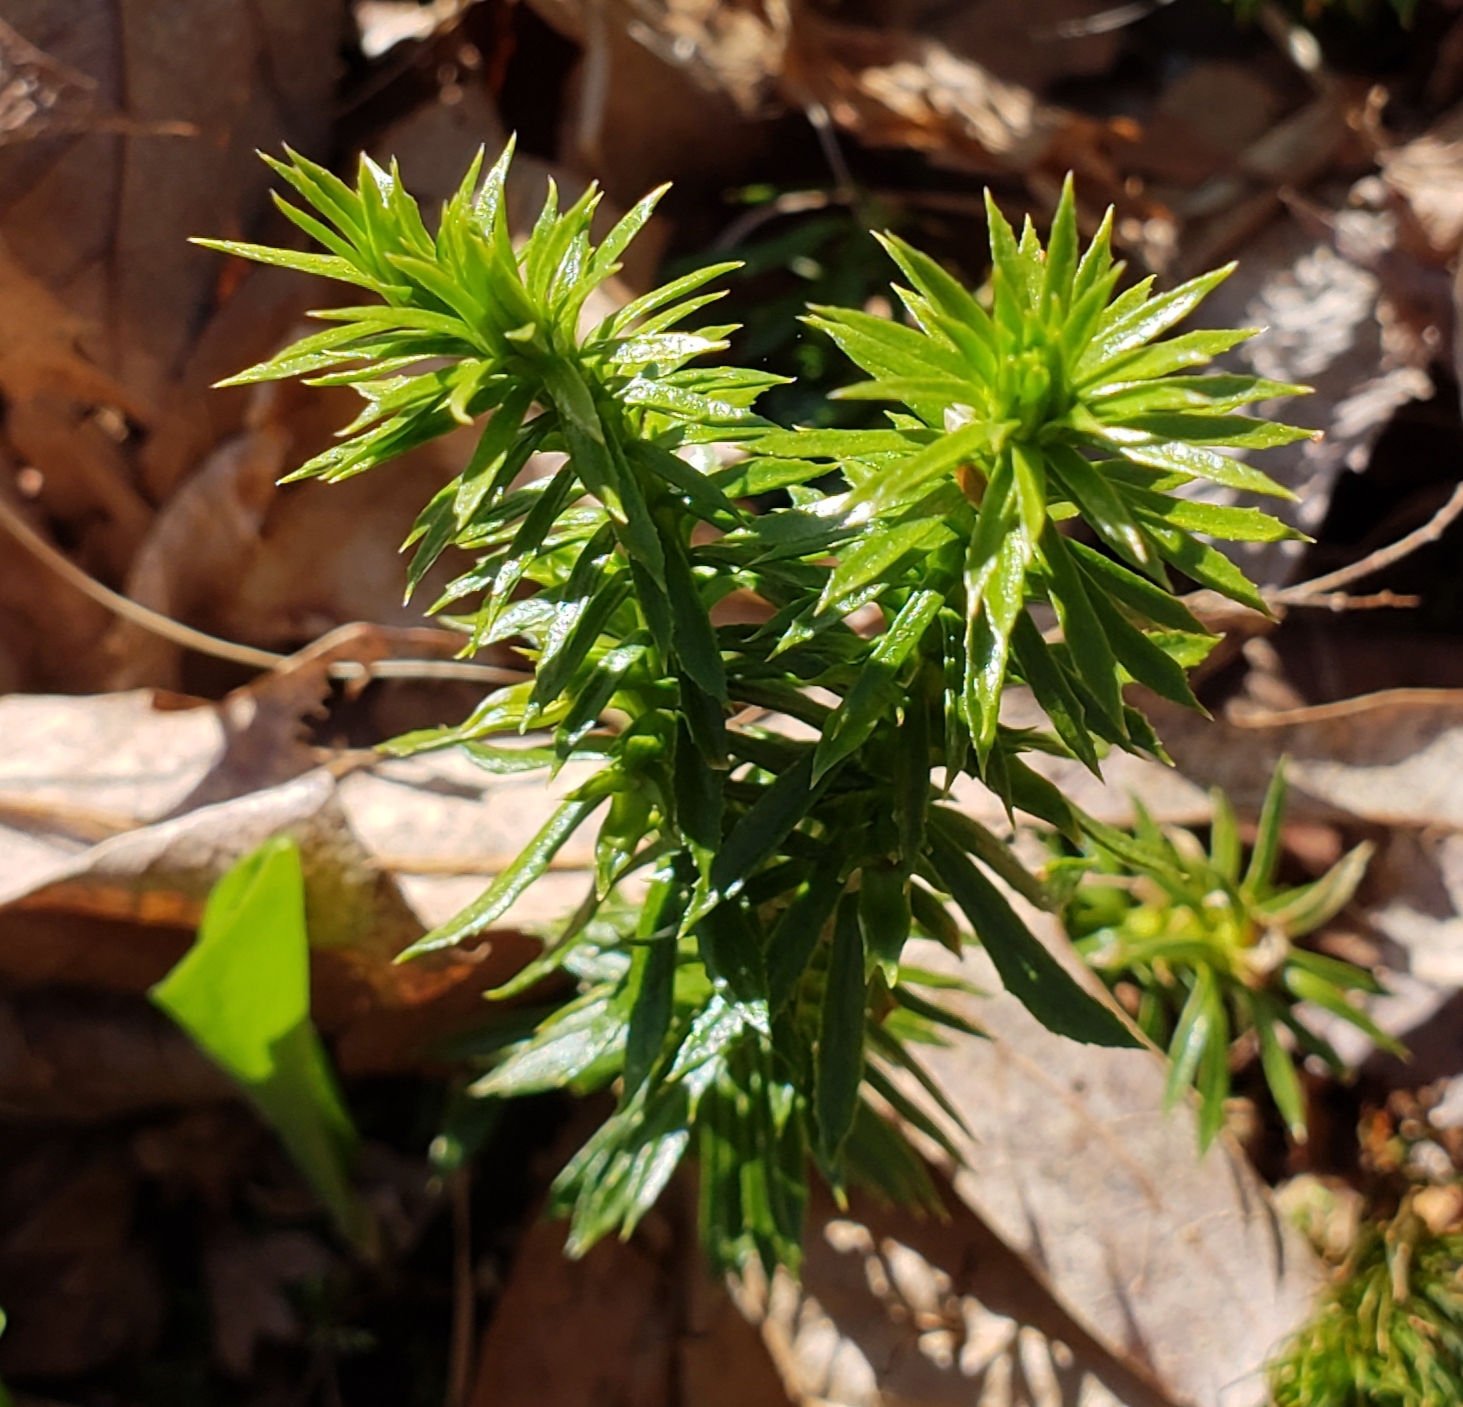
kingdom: Plantae
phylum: Tracheophyta
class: Lycopodiopsida
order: Lycopodiales
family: Lycopodiaceae
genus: Huperzia
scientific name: Huperzia lucidula
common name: Shining clubmoss
